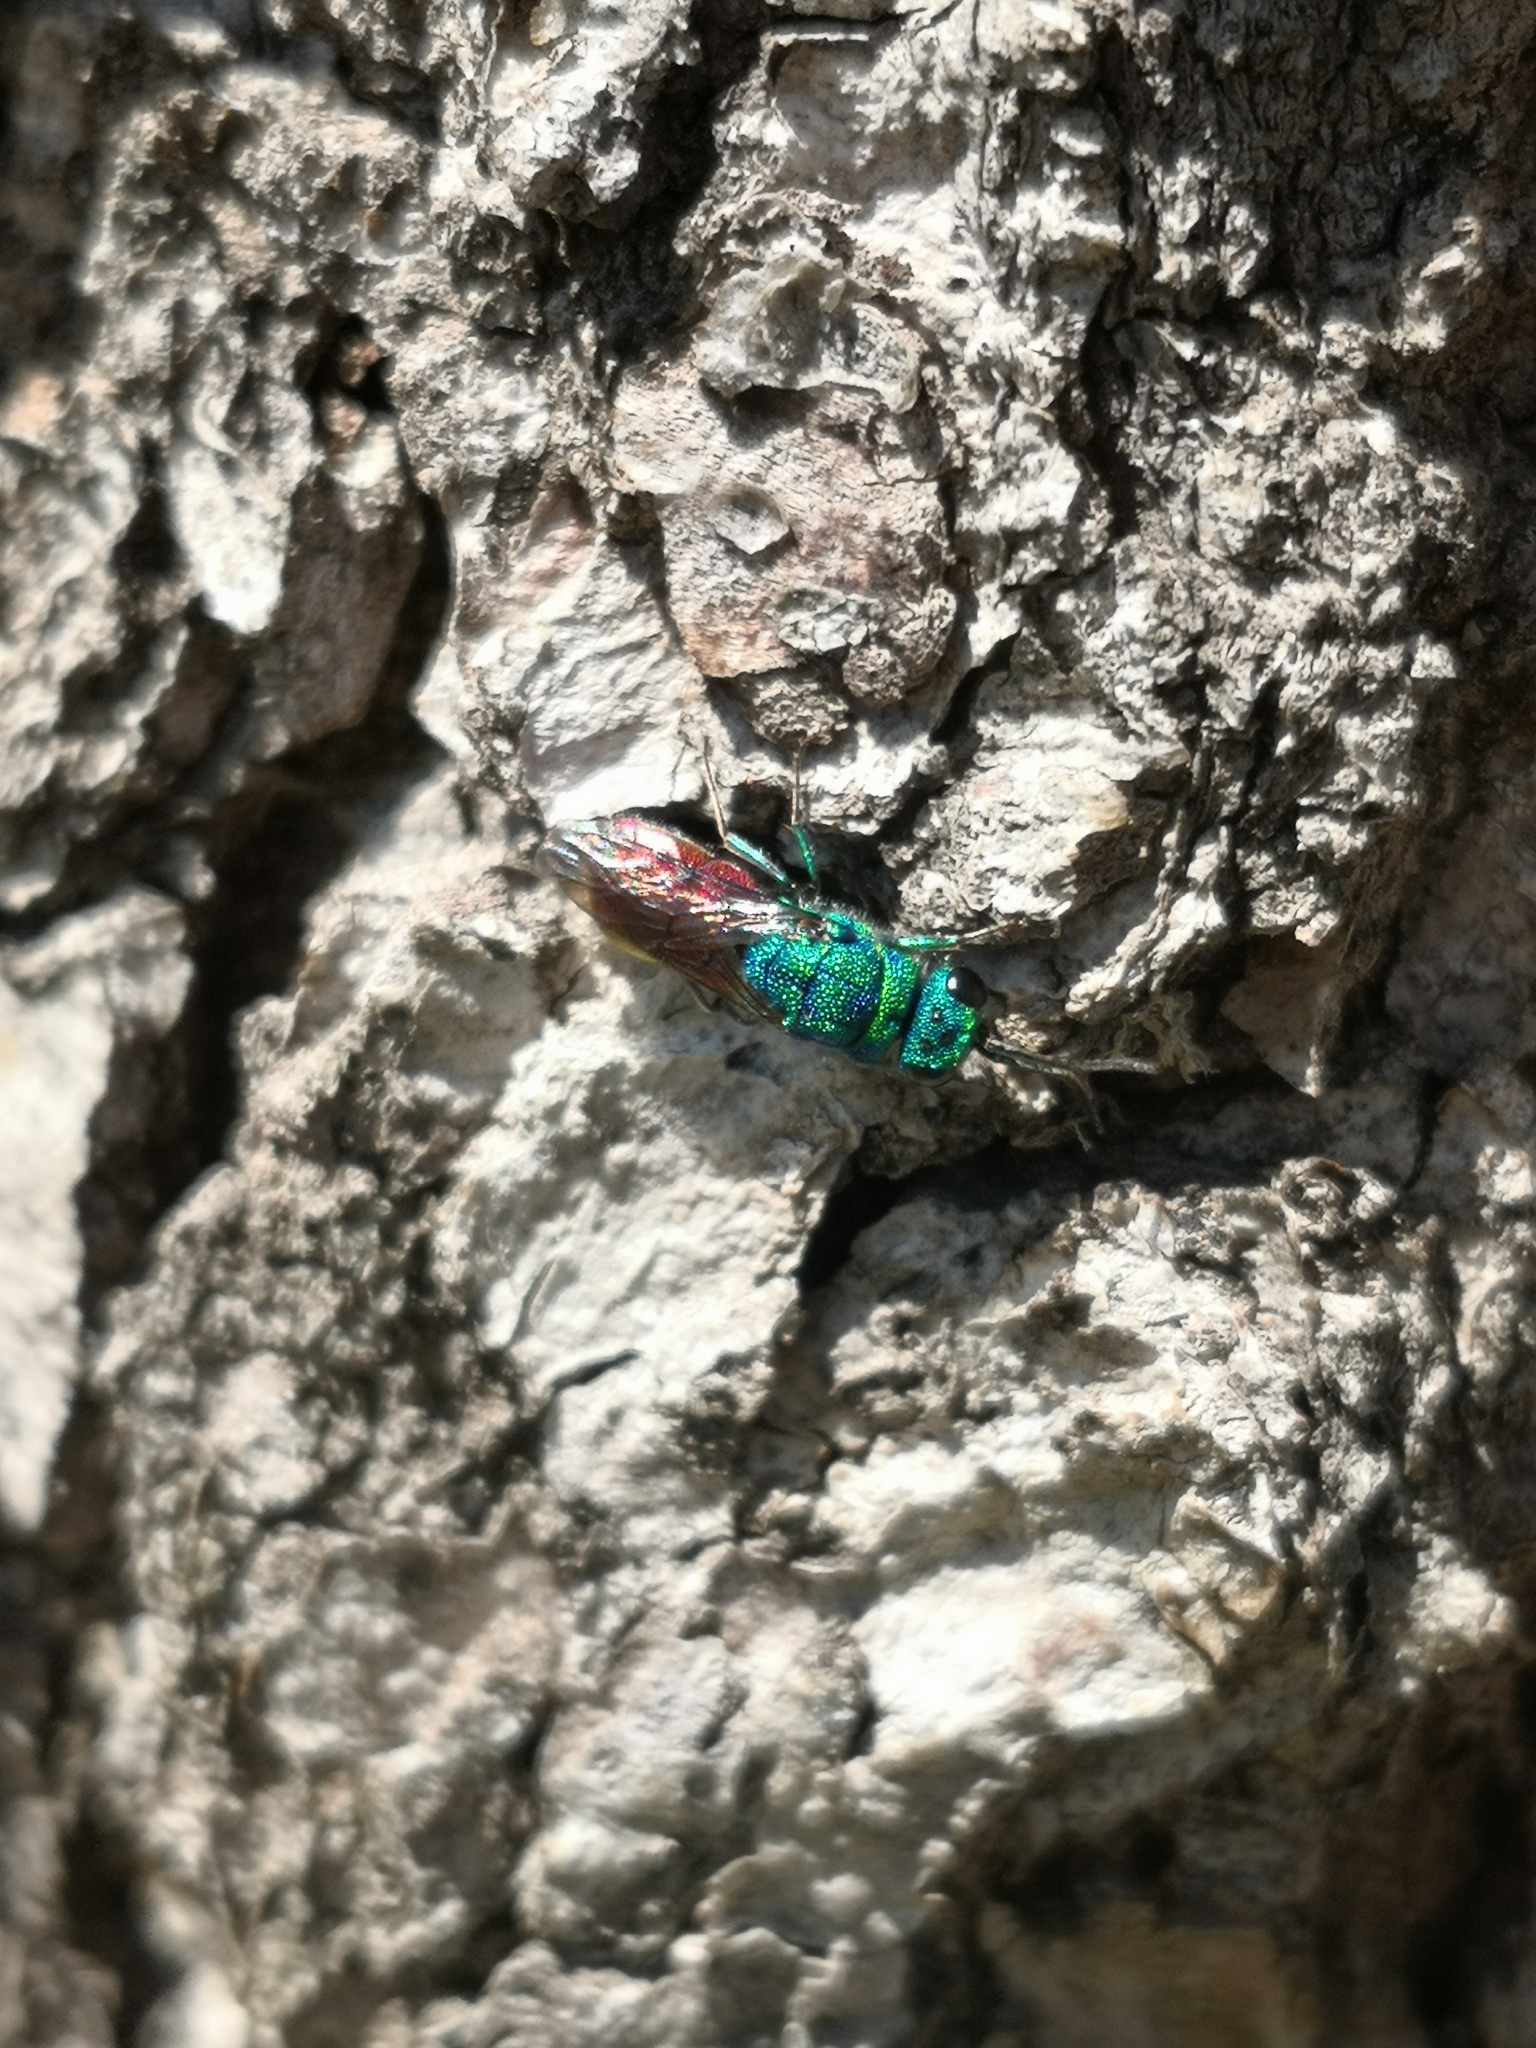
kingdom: Animalia
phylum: Arthropoda
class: Insecta
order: Hymenoptera
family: Chrysididae
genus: Chrysis
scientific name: Chrysis
